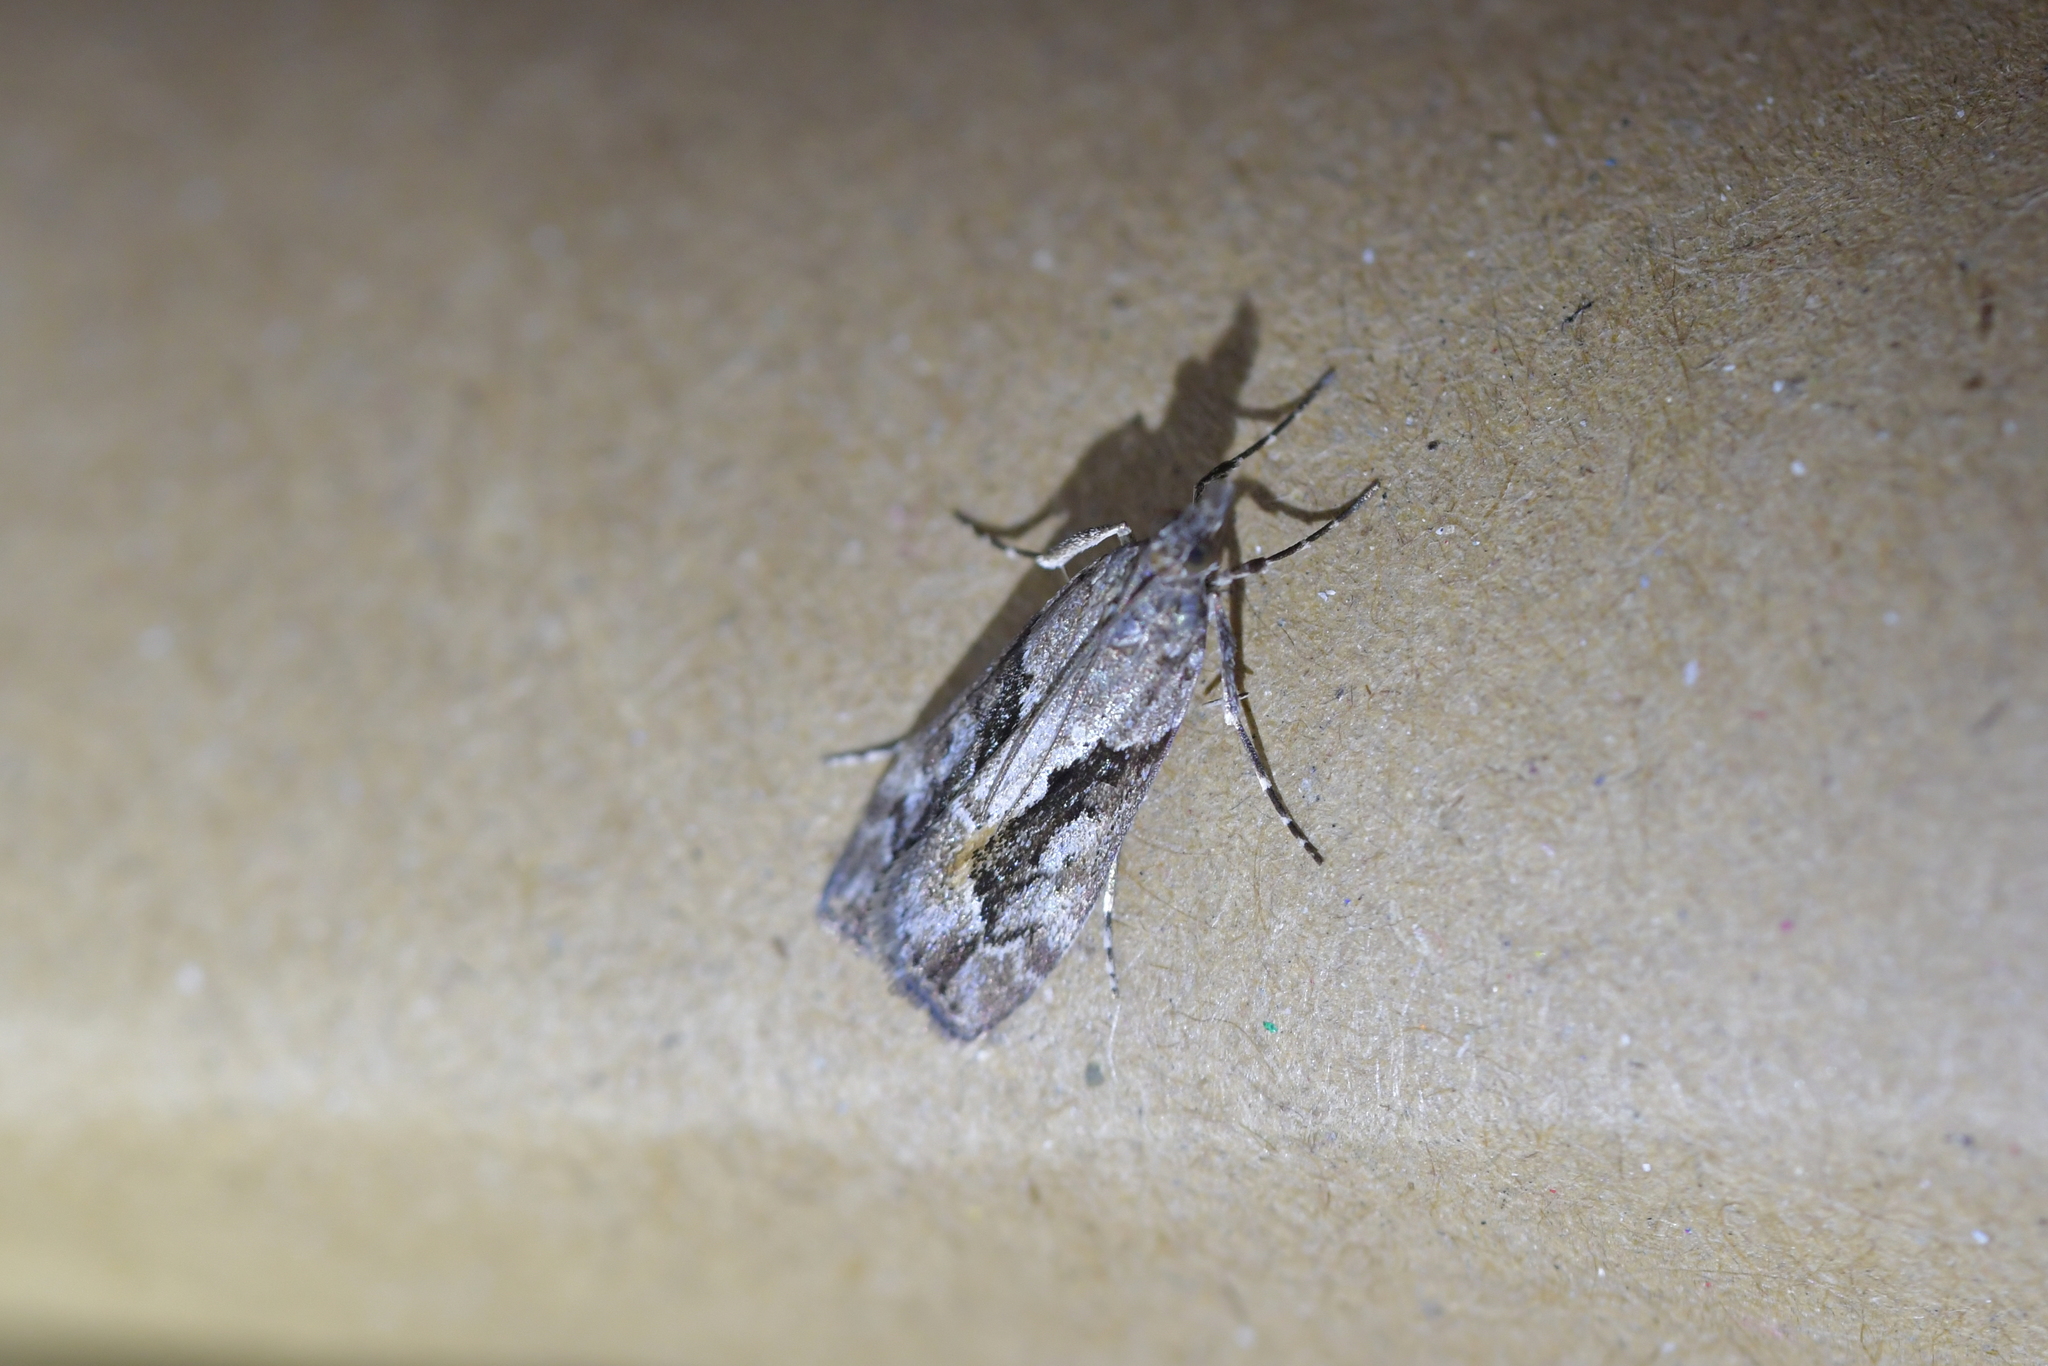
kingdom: Animalia
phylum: Arthropoda
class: Insecta
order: Lepidoptera
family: Crambidae
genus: Eudonia
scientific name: Eudonia submarginalis
